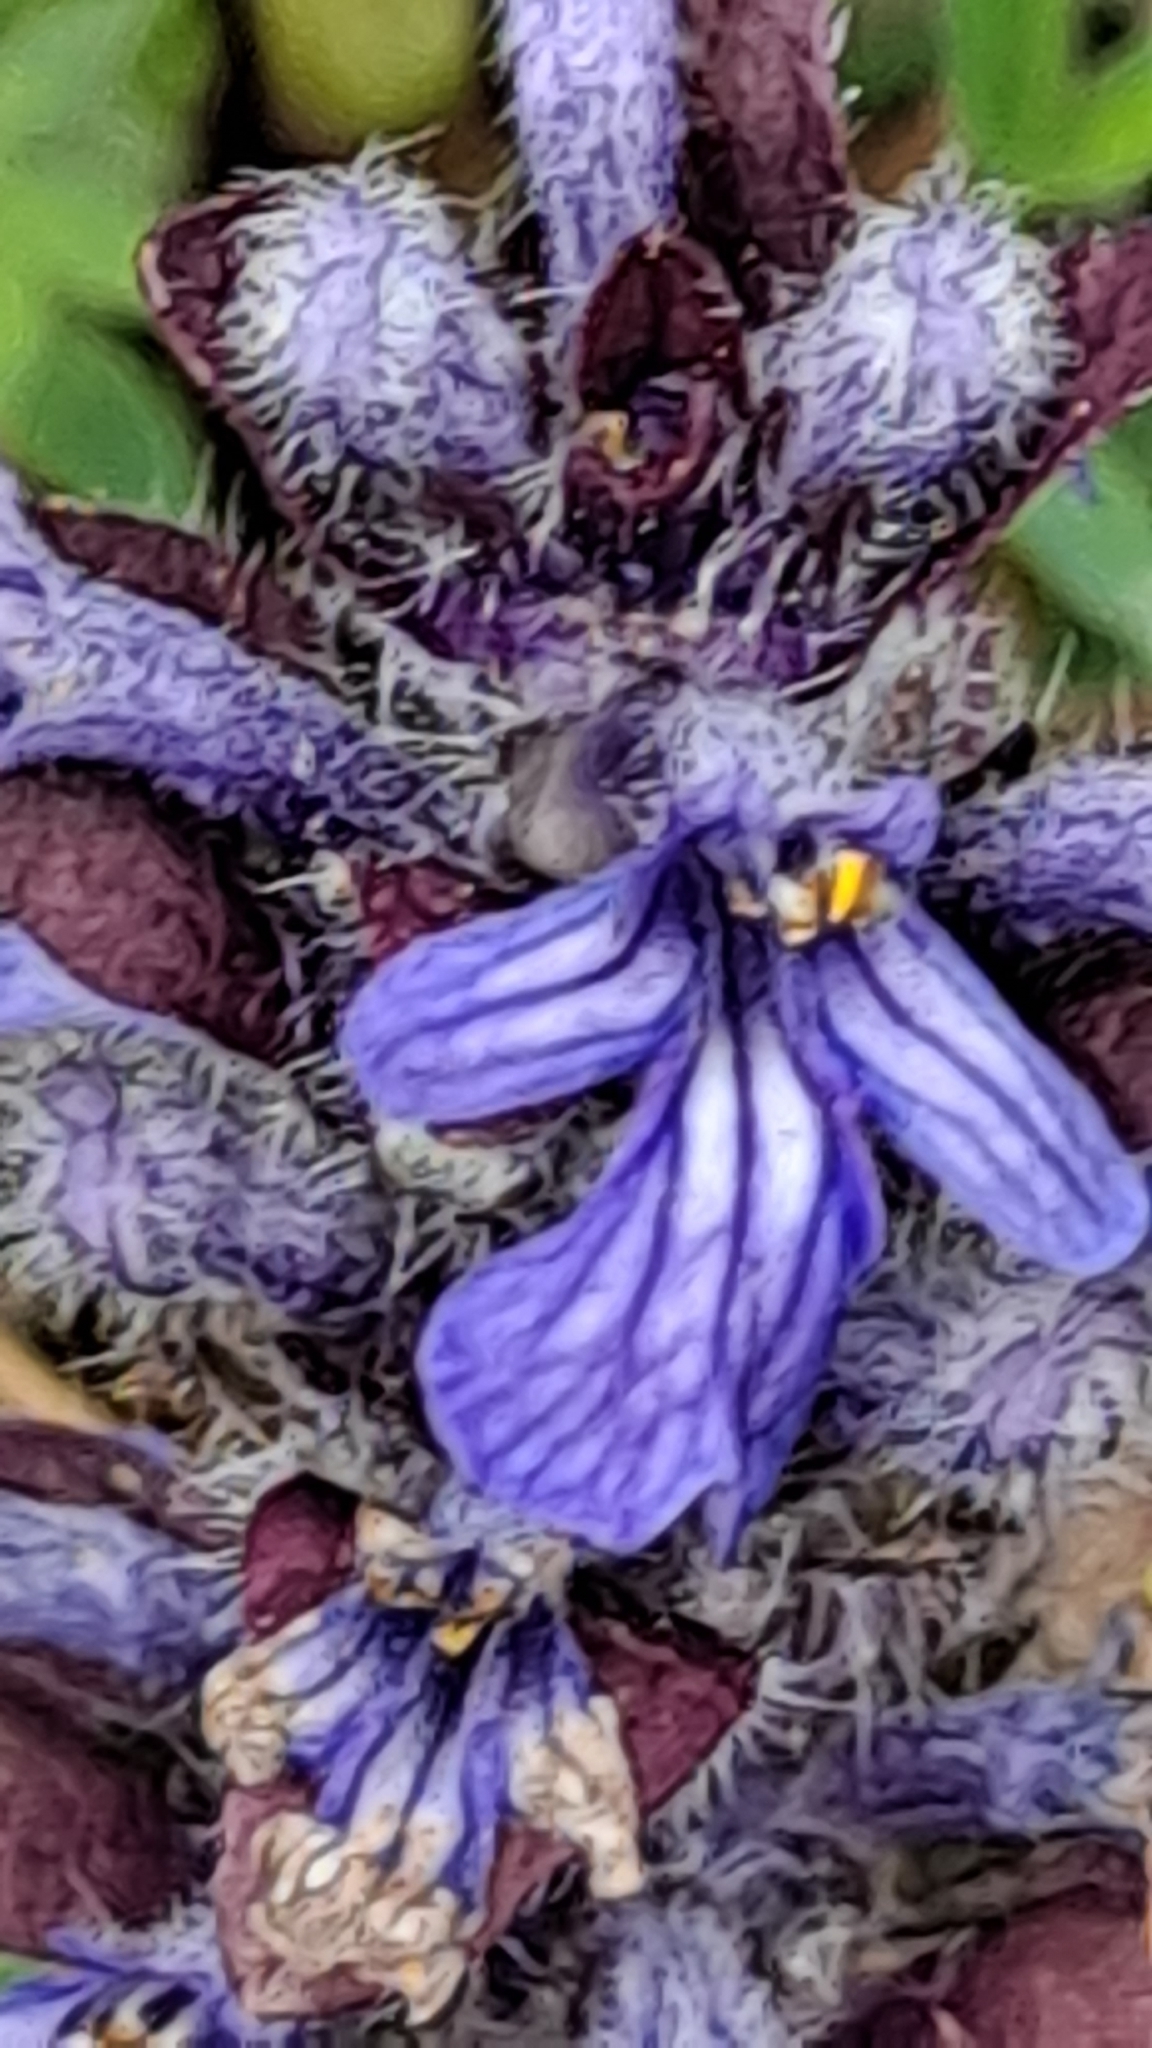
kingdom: Plantae
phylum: Tracheophyta
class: Magnoliopsida
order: Lamiales
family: Lamiaceae
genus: Ajuga
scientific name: Ajuga reptans
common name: Bugle
